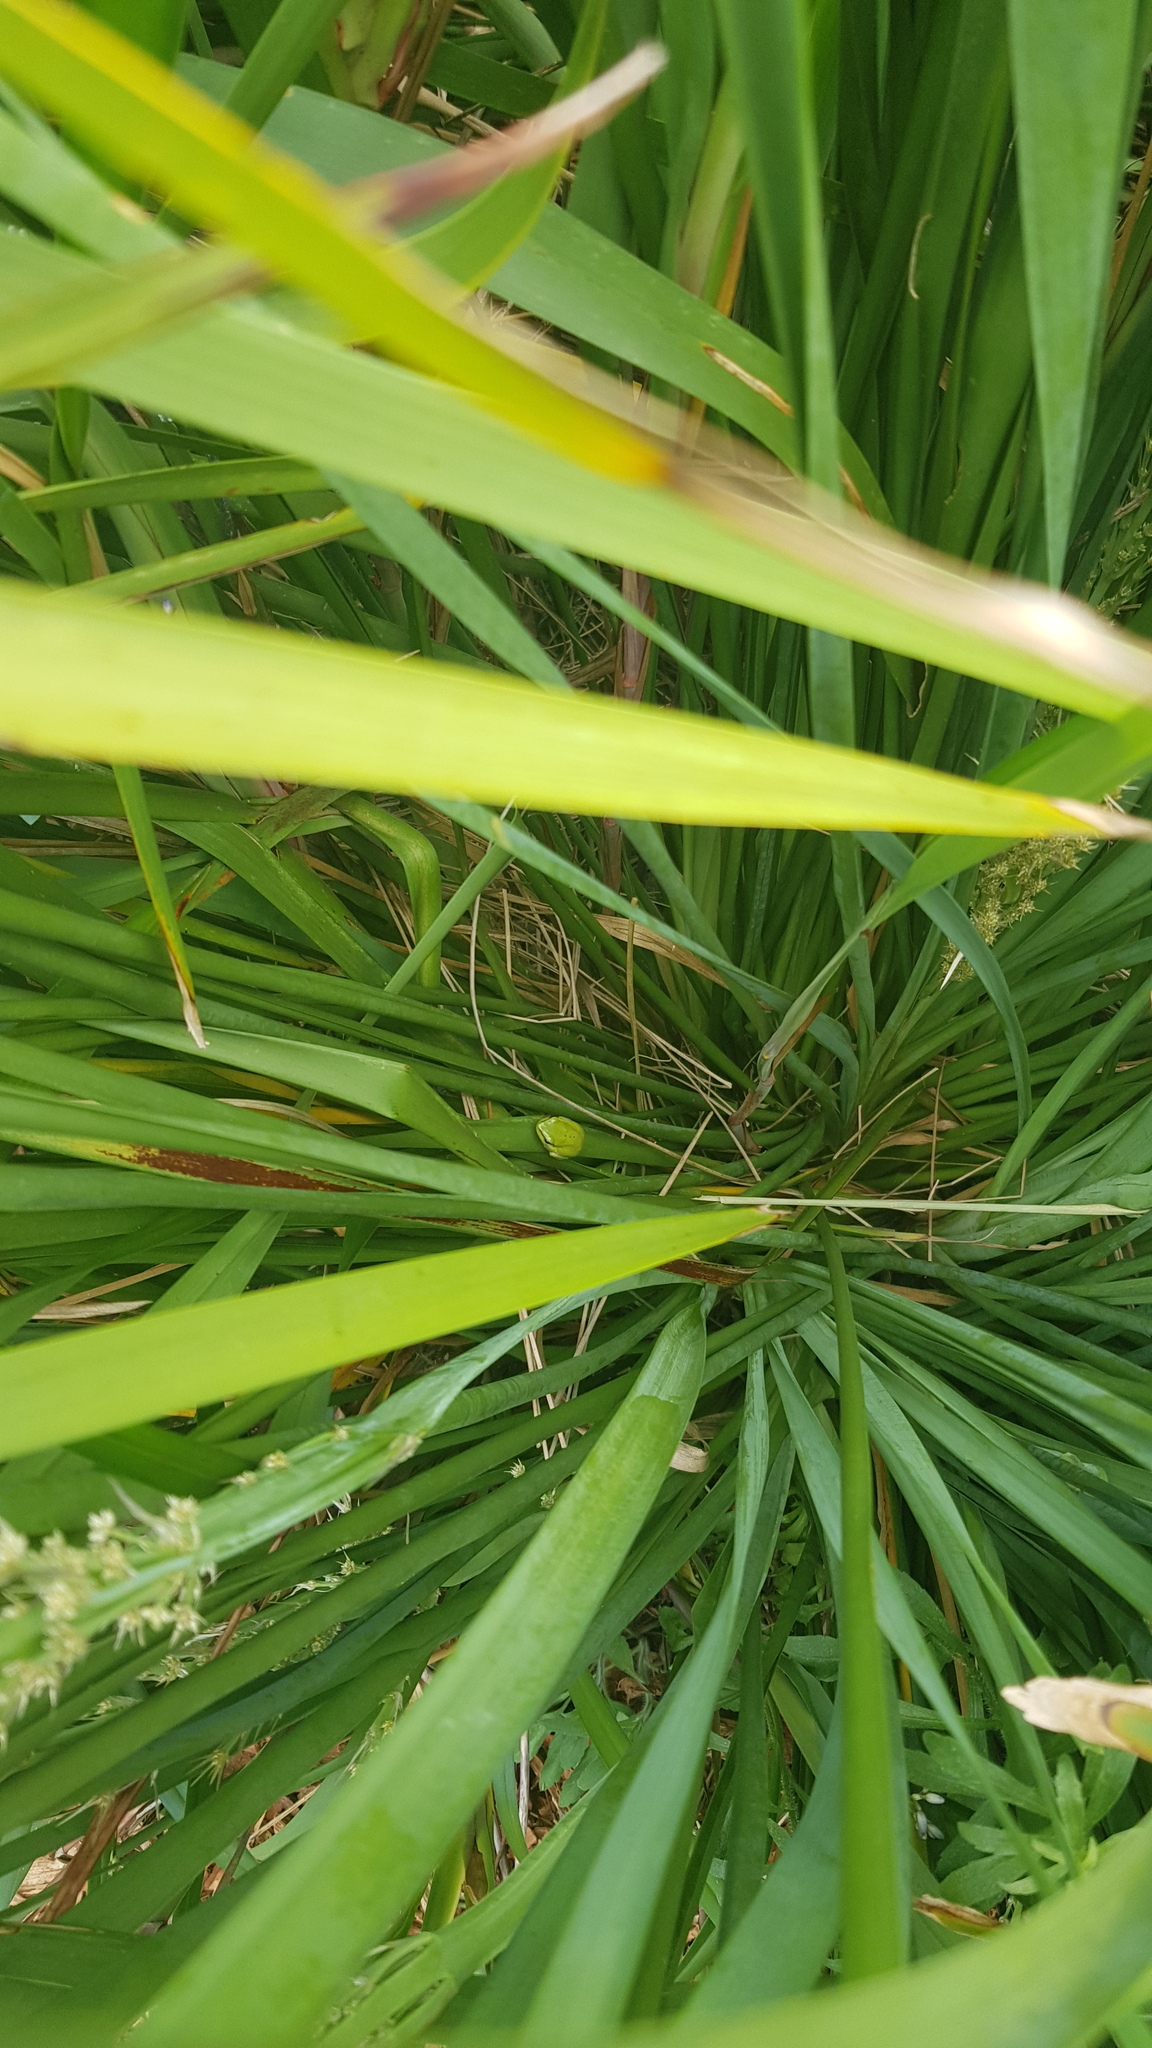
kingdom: Animalia
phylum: Chordata
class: Amphibia
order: Anura
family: Pelodryadidae
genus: Litoria
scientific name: Litoria fallax
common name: Eastern dwarf treefrog
